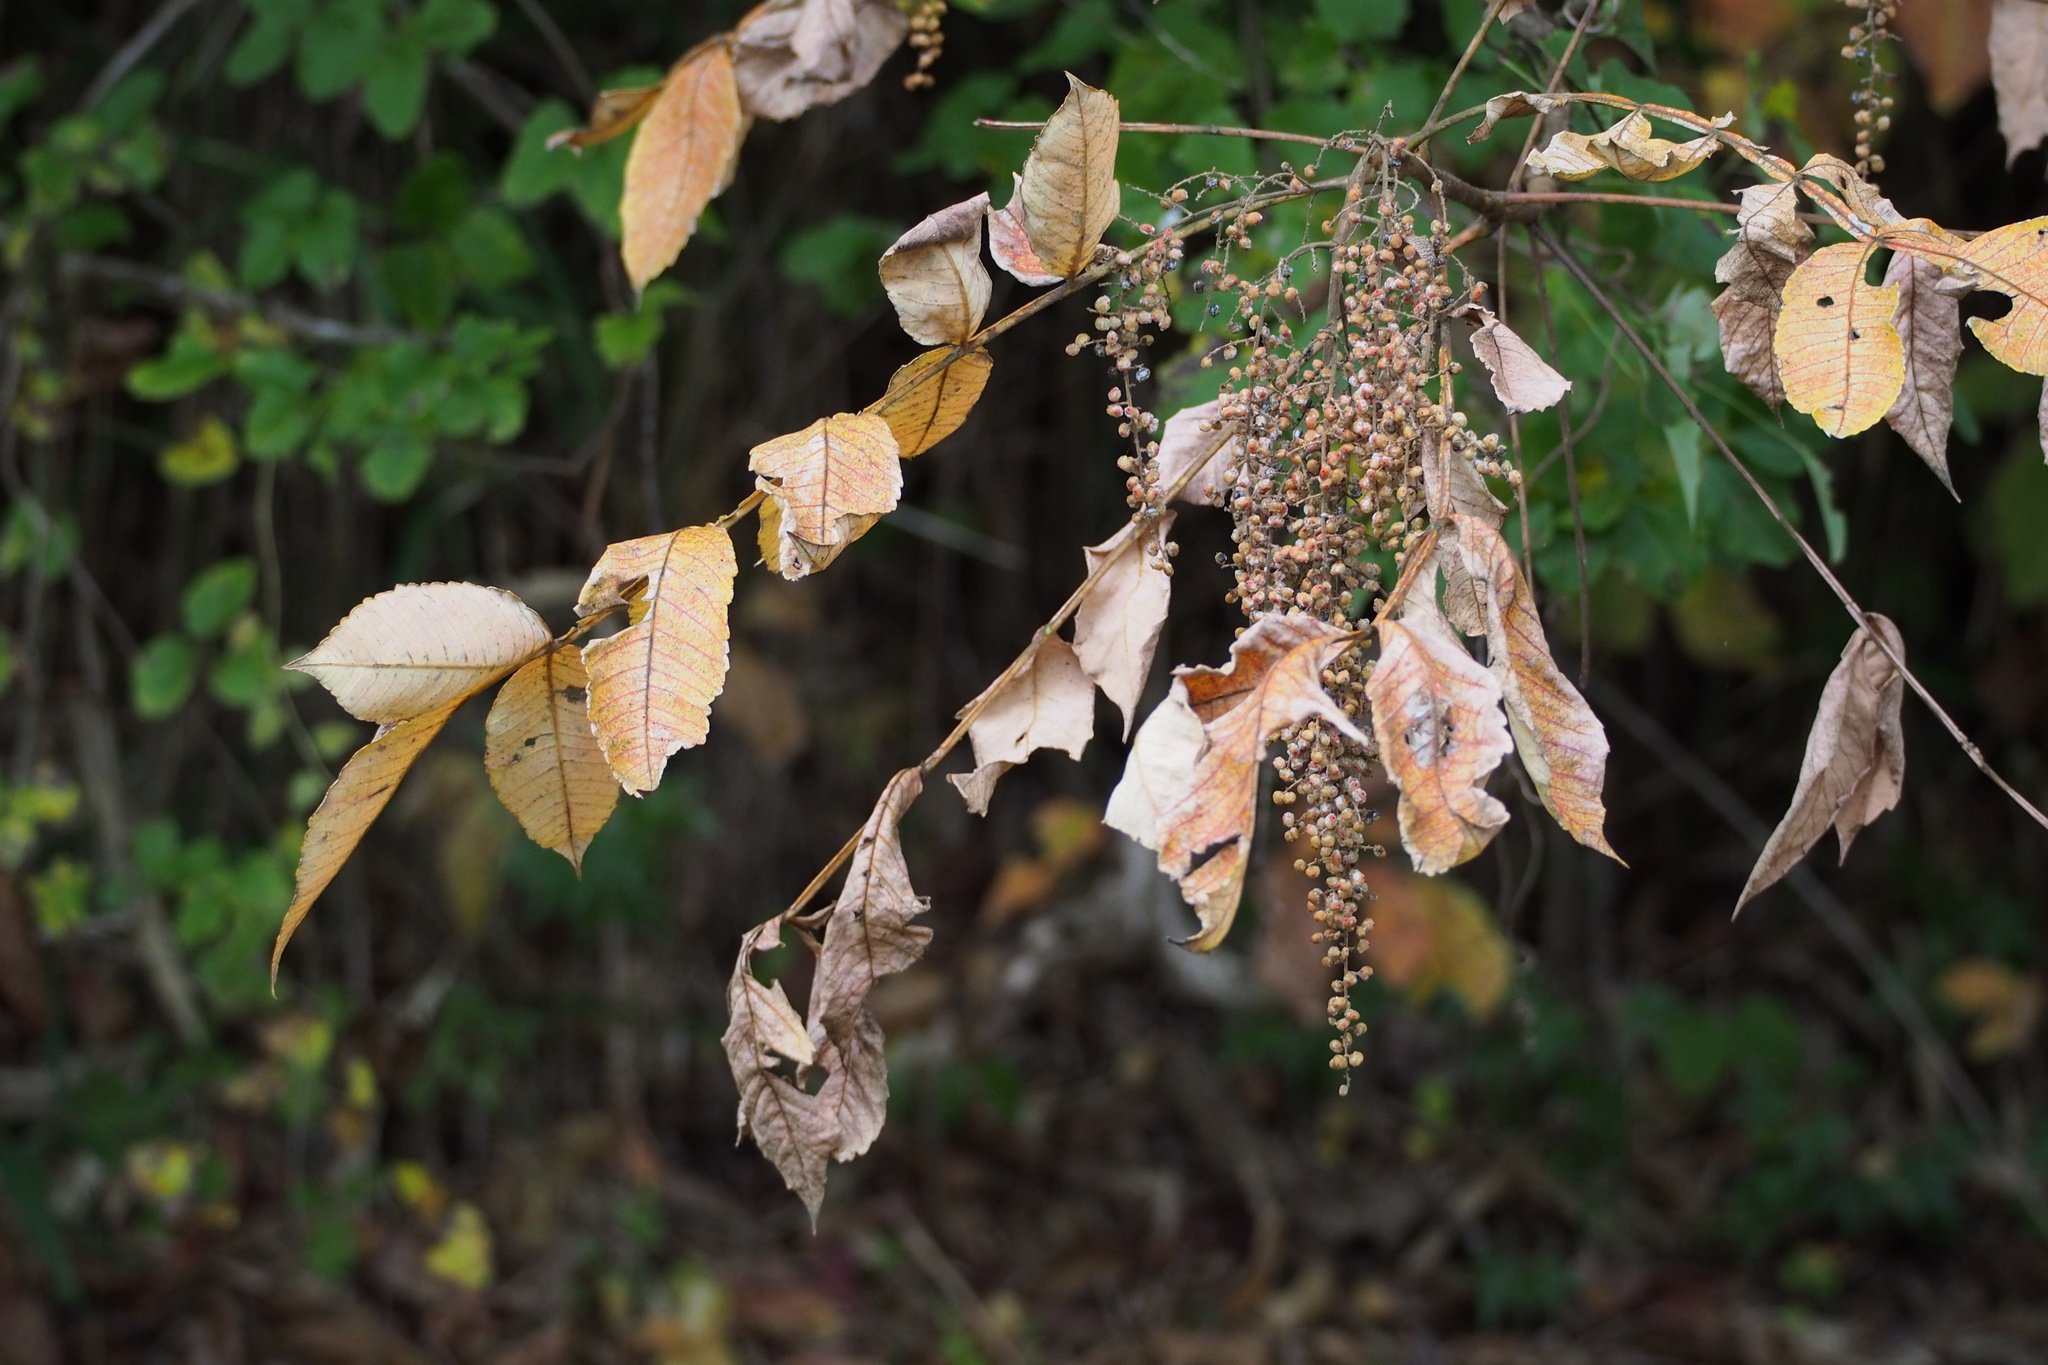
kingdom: Plantae
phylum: Tracheophyta
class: Magnoliopsida
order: Sapindales
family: Anacardiaceae
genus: Rhus
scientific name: Rhus chinensis
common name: Chinese gall
